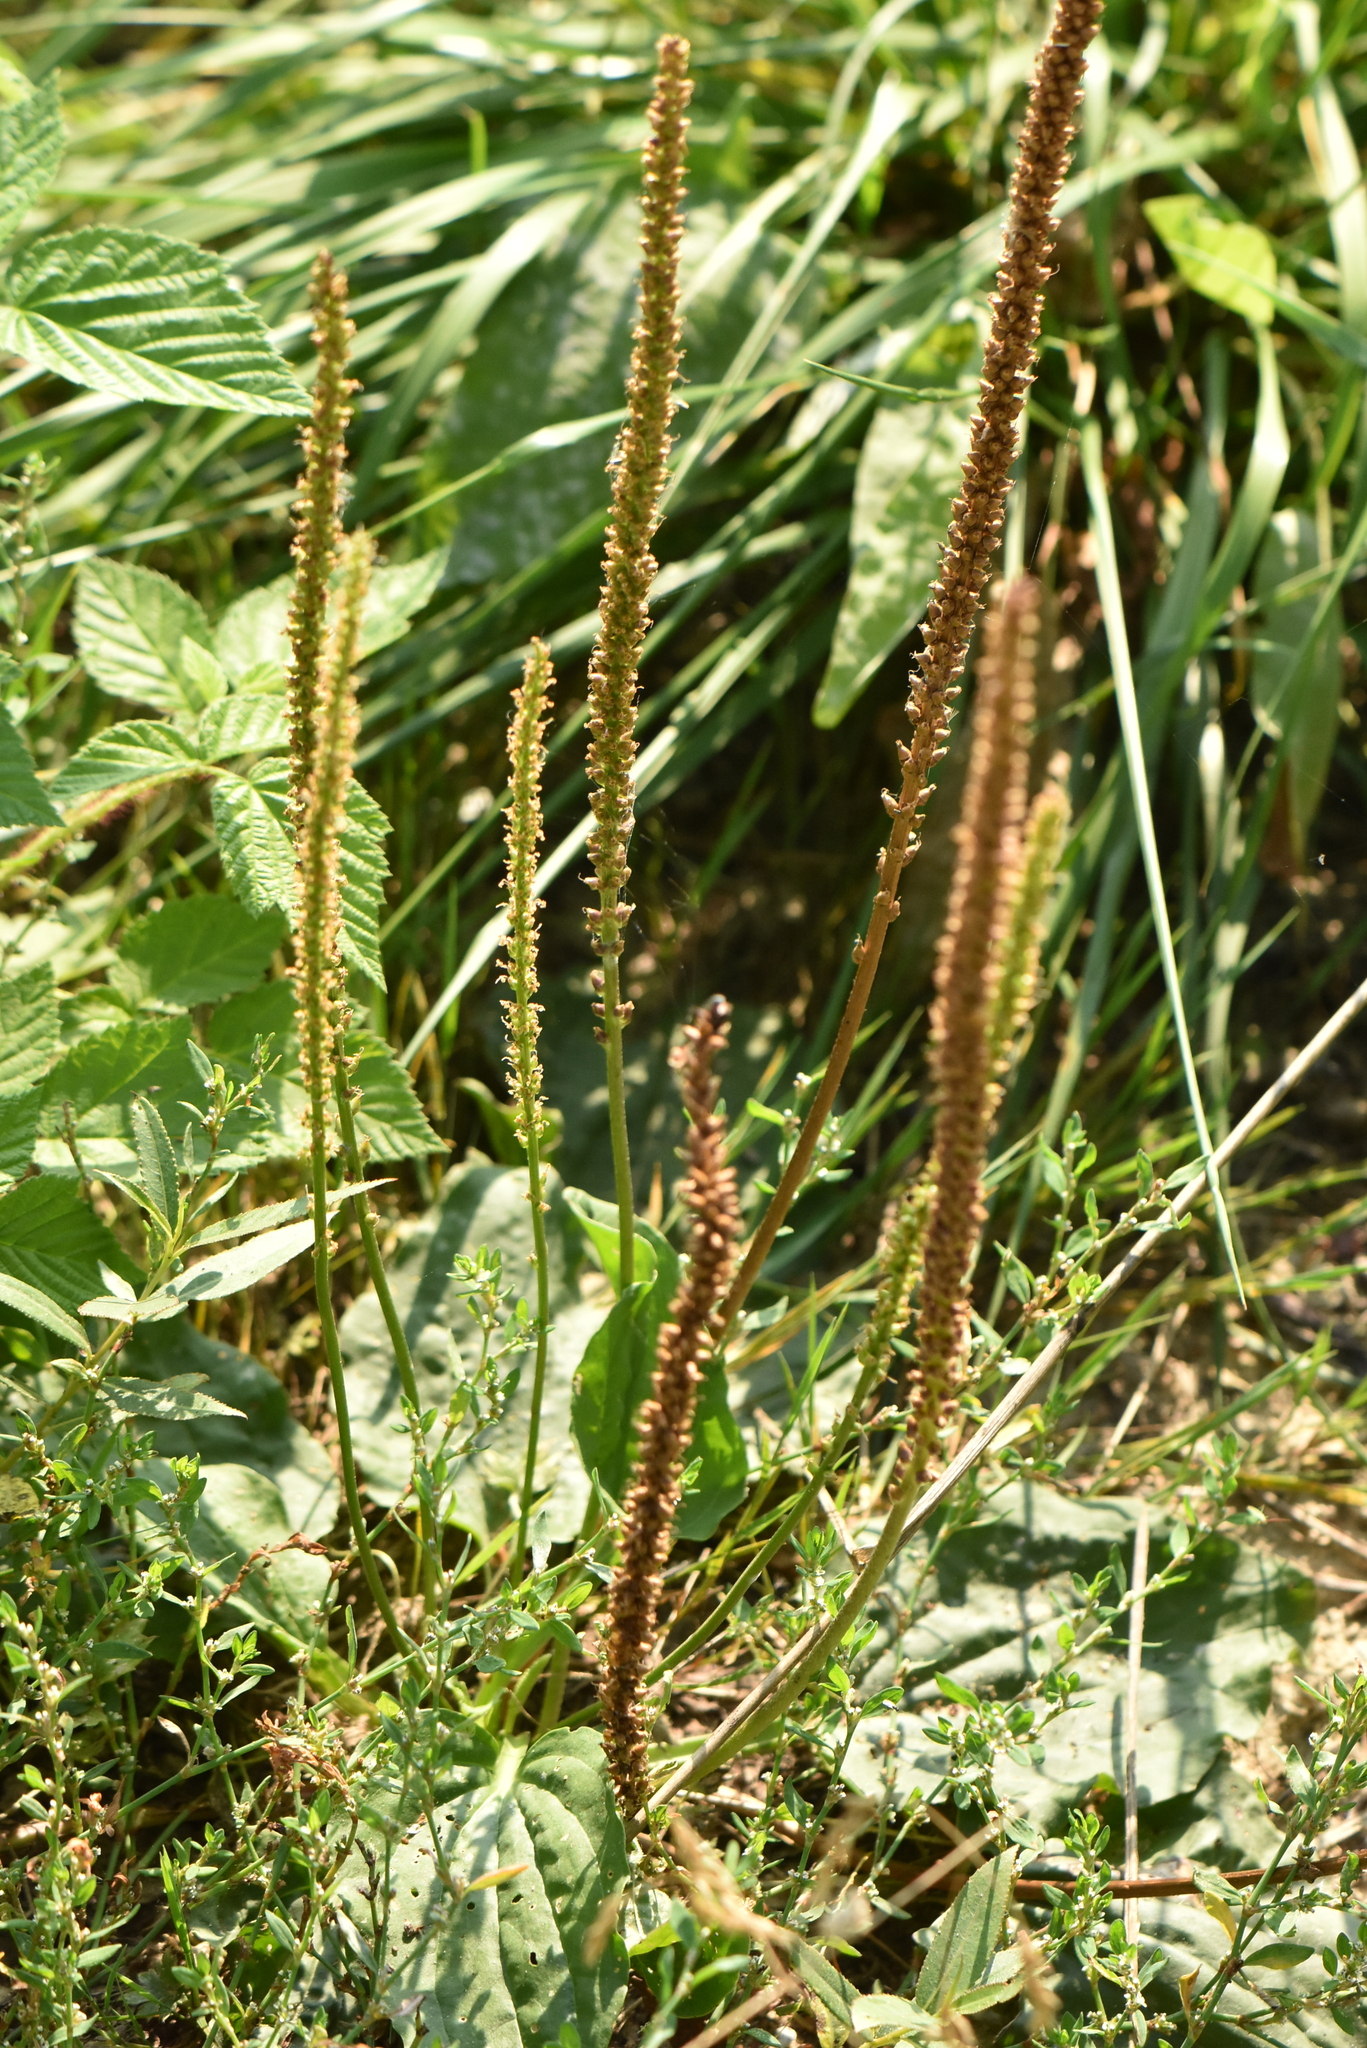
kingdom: Plantae
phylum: Tracheophyta
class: Magnoliopsida
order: Lamiales
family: Plantaginaceae
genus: Plantago
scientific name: Plantago major
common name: Common plantain
